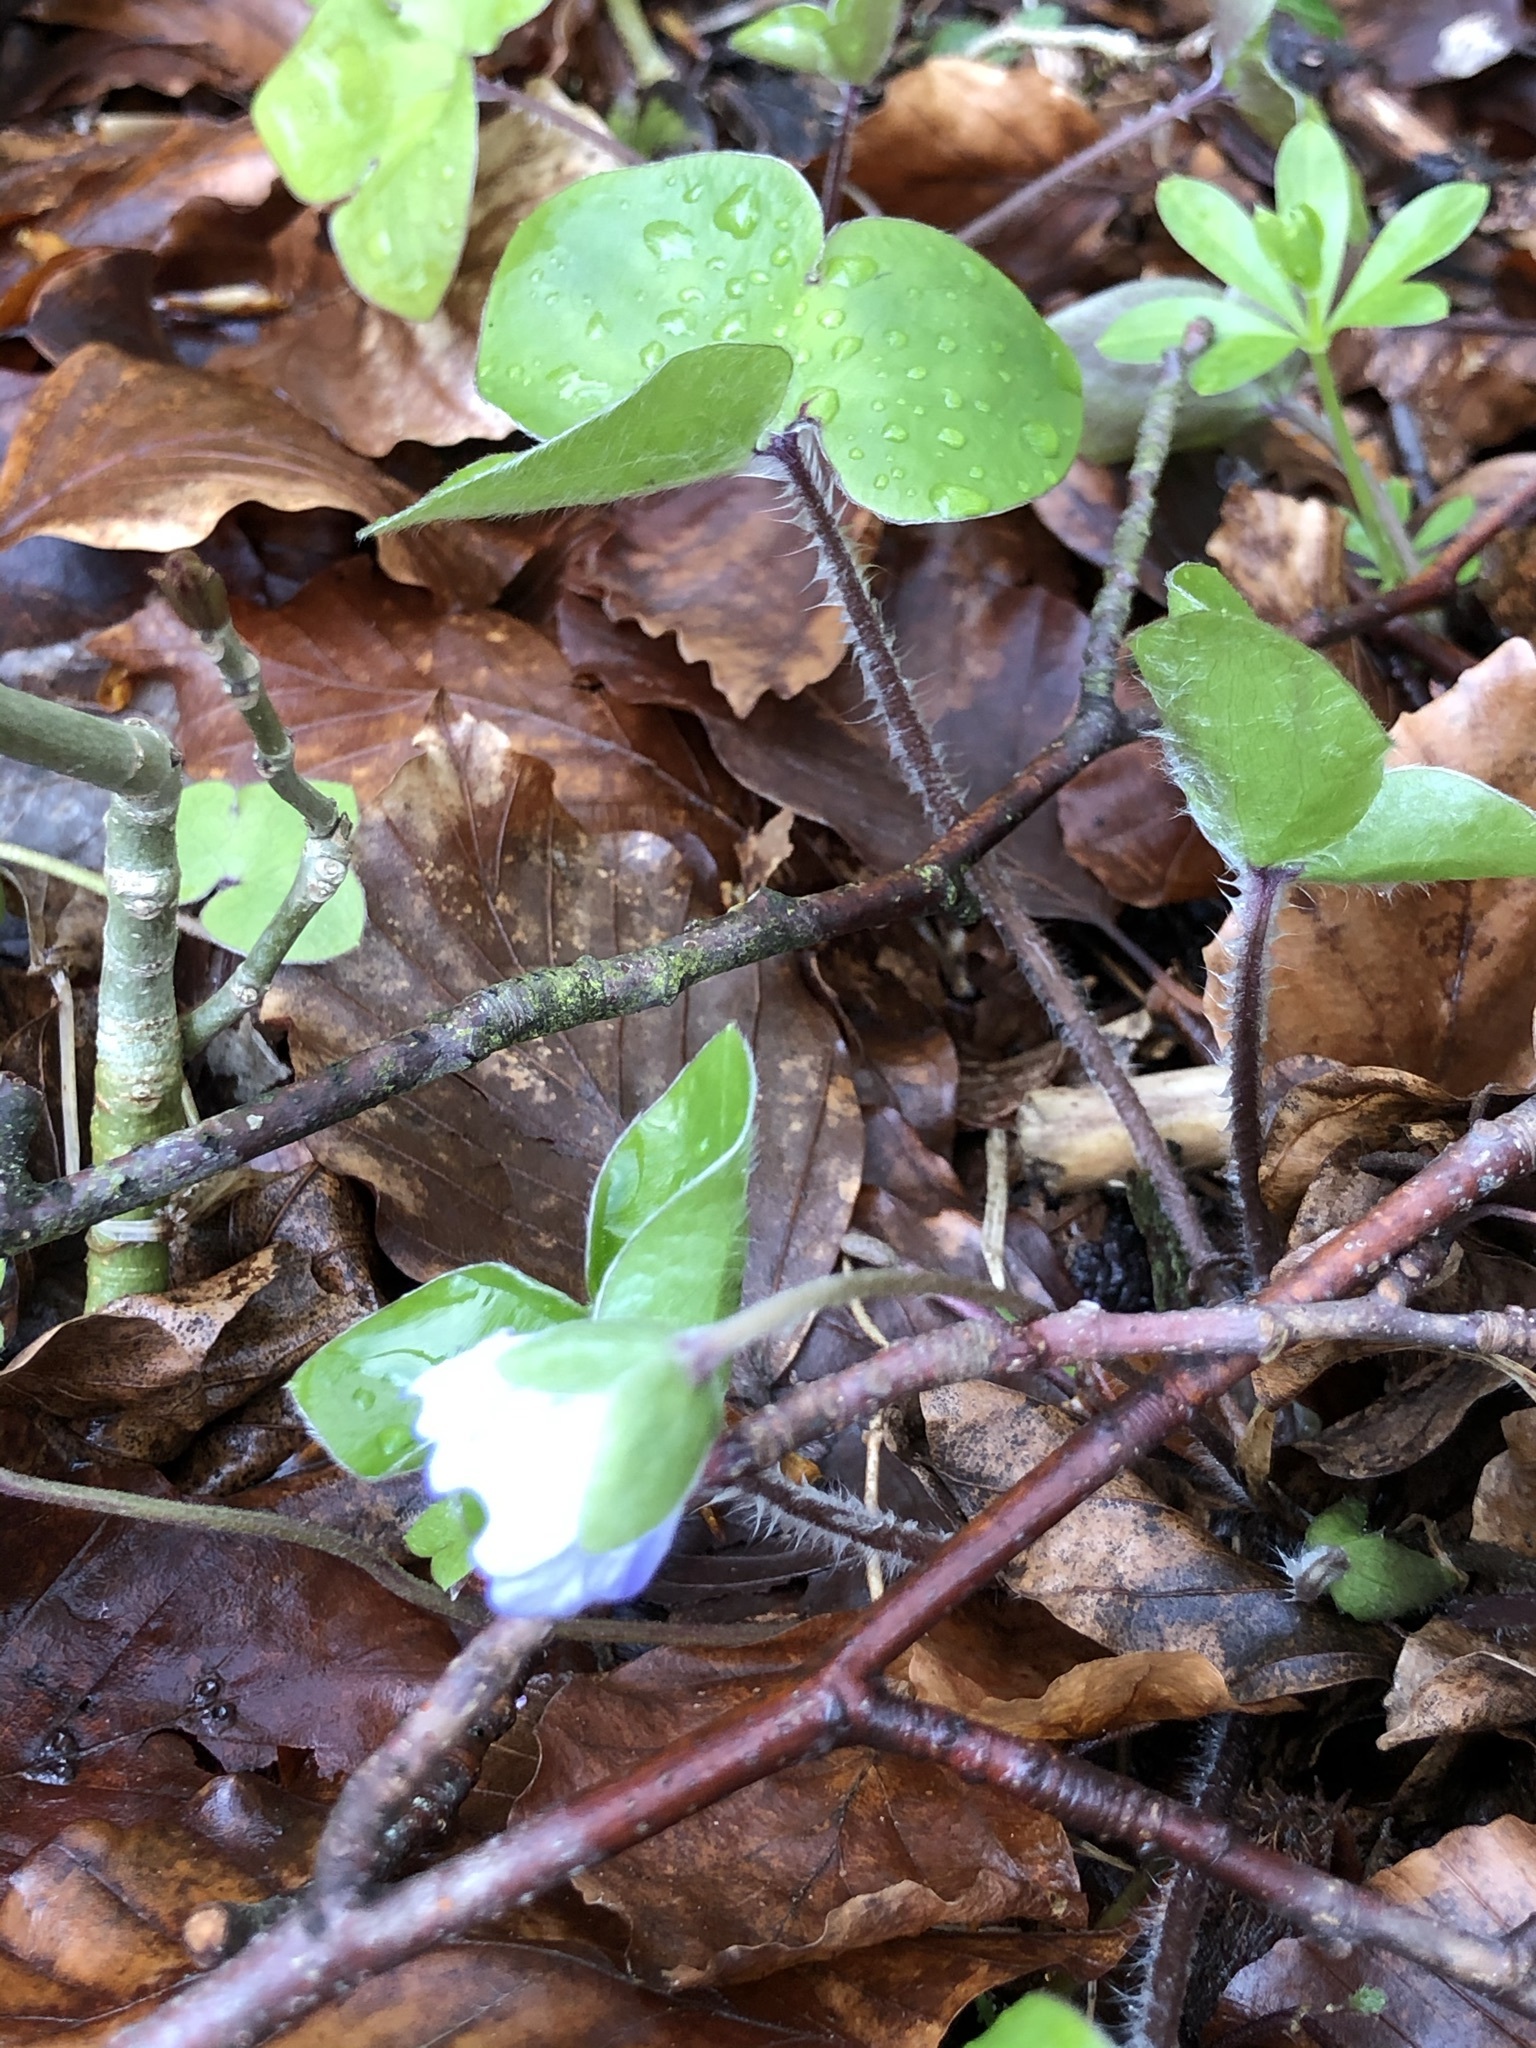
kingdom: Plantae
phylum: Tracheophyta
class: Magnoliopsida
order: Ranunculales
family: Ranunculaceae
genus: Hepatica
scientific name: Hepatica nobilis
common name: Liverleaf
